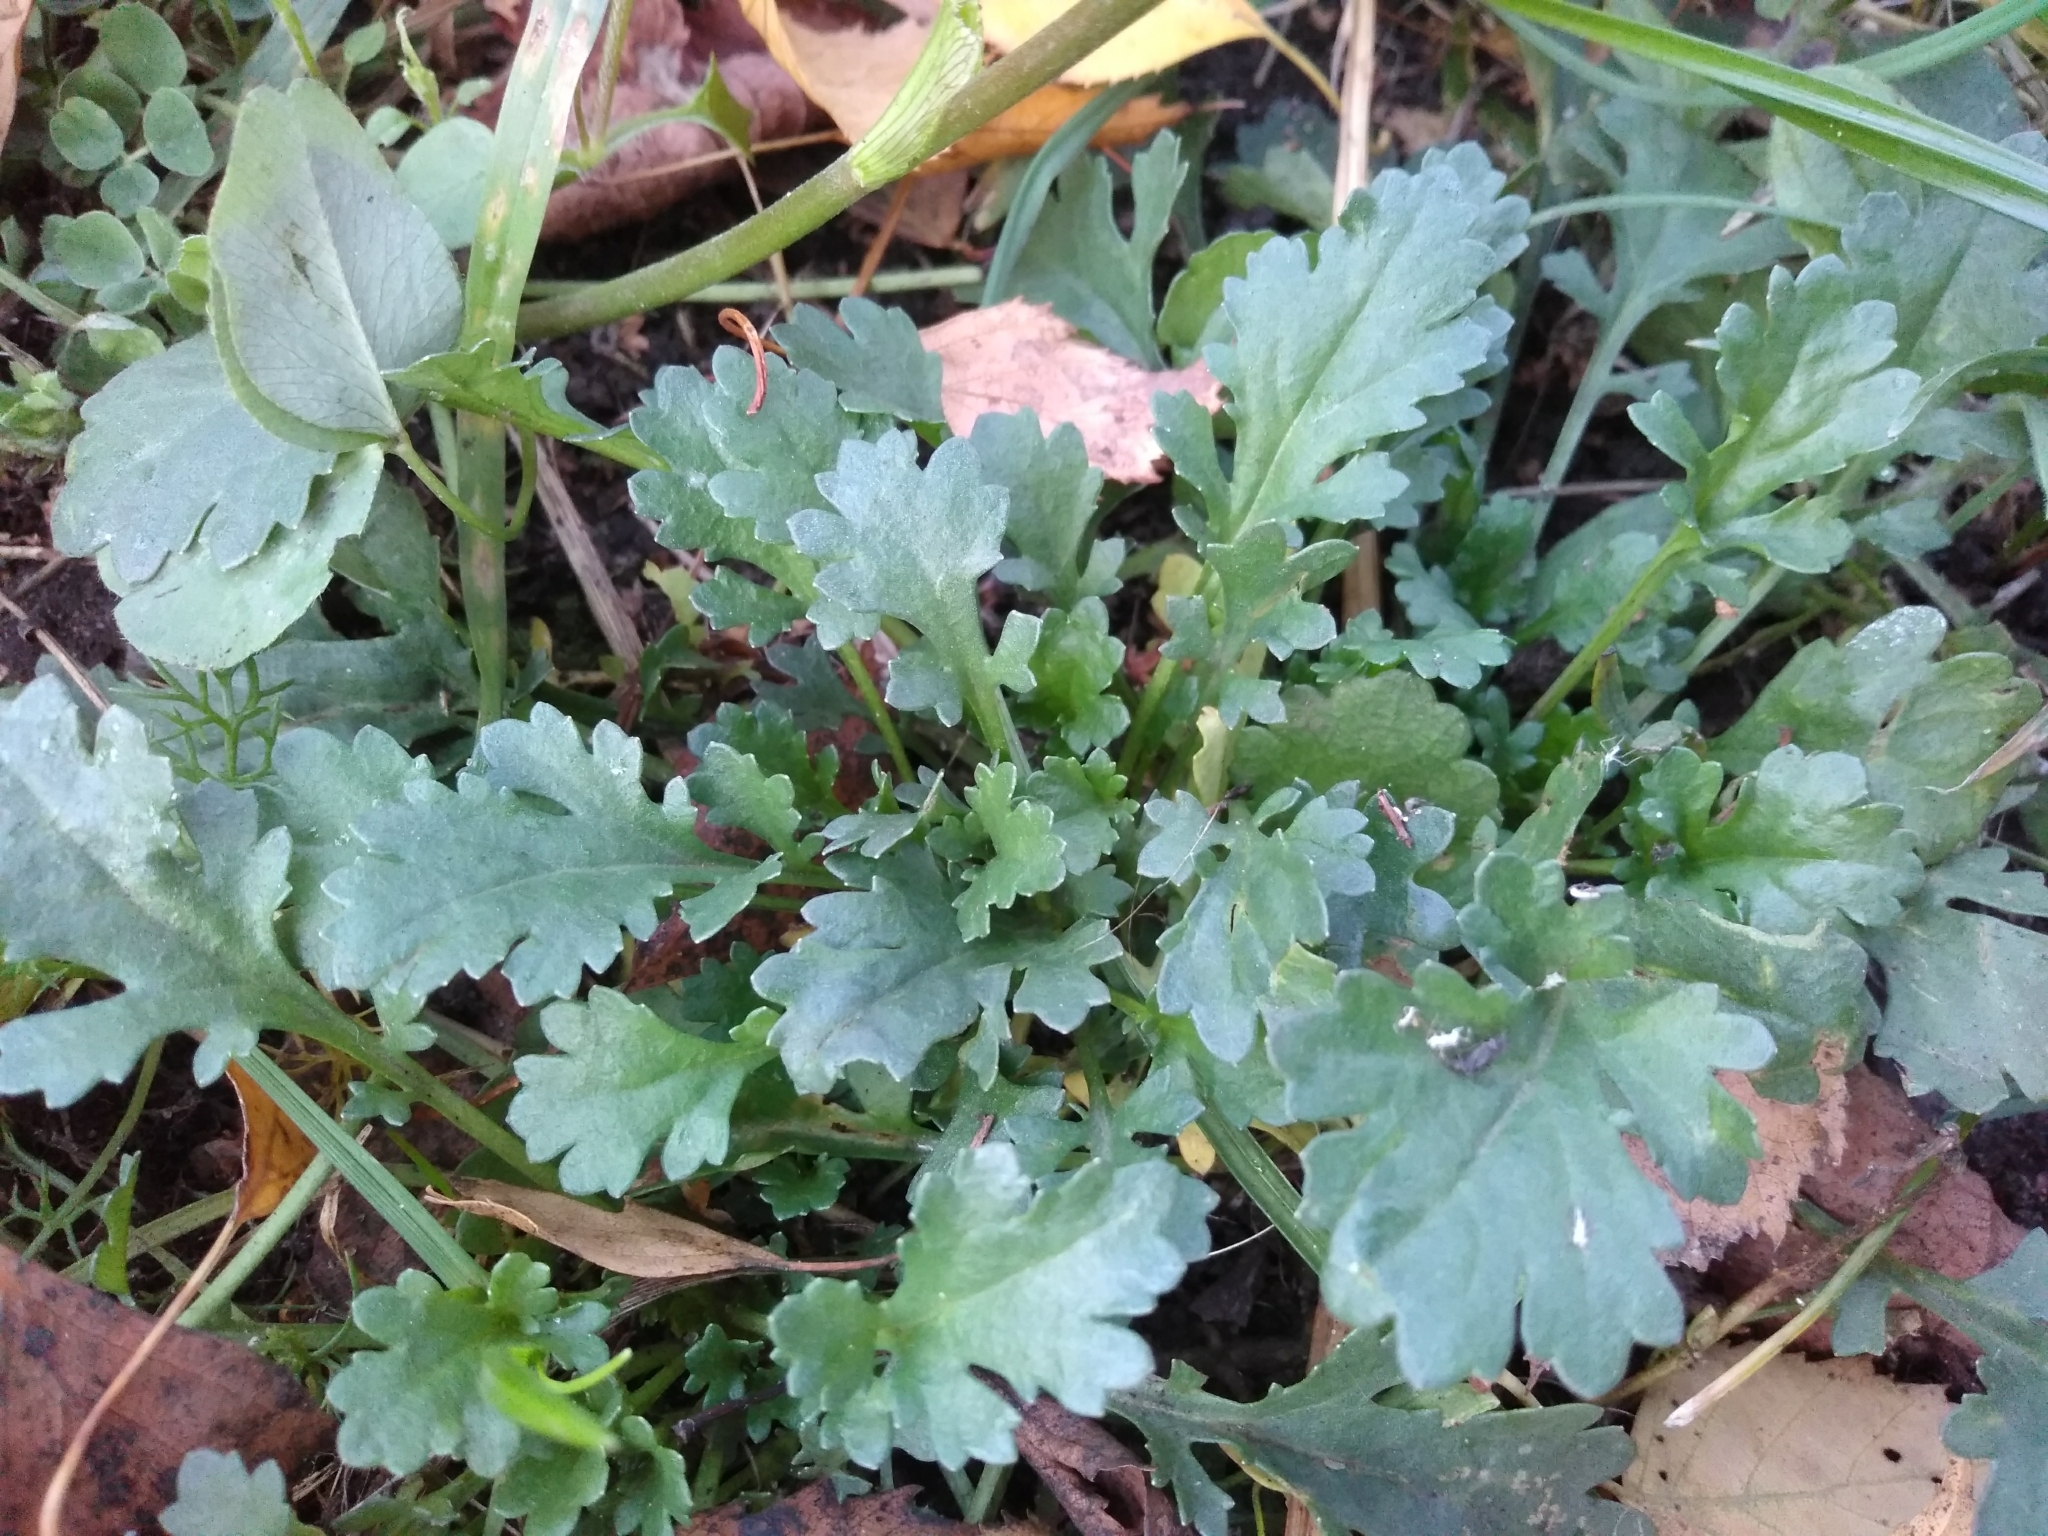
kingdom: Plantae
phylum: Tracheophyta
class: Magnoliopsida
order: Asterales
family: Asteraceae
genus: Leucanthemum
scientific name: Leucanthemum vulgare
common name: Oxeye daisy
